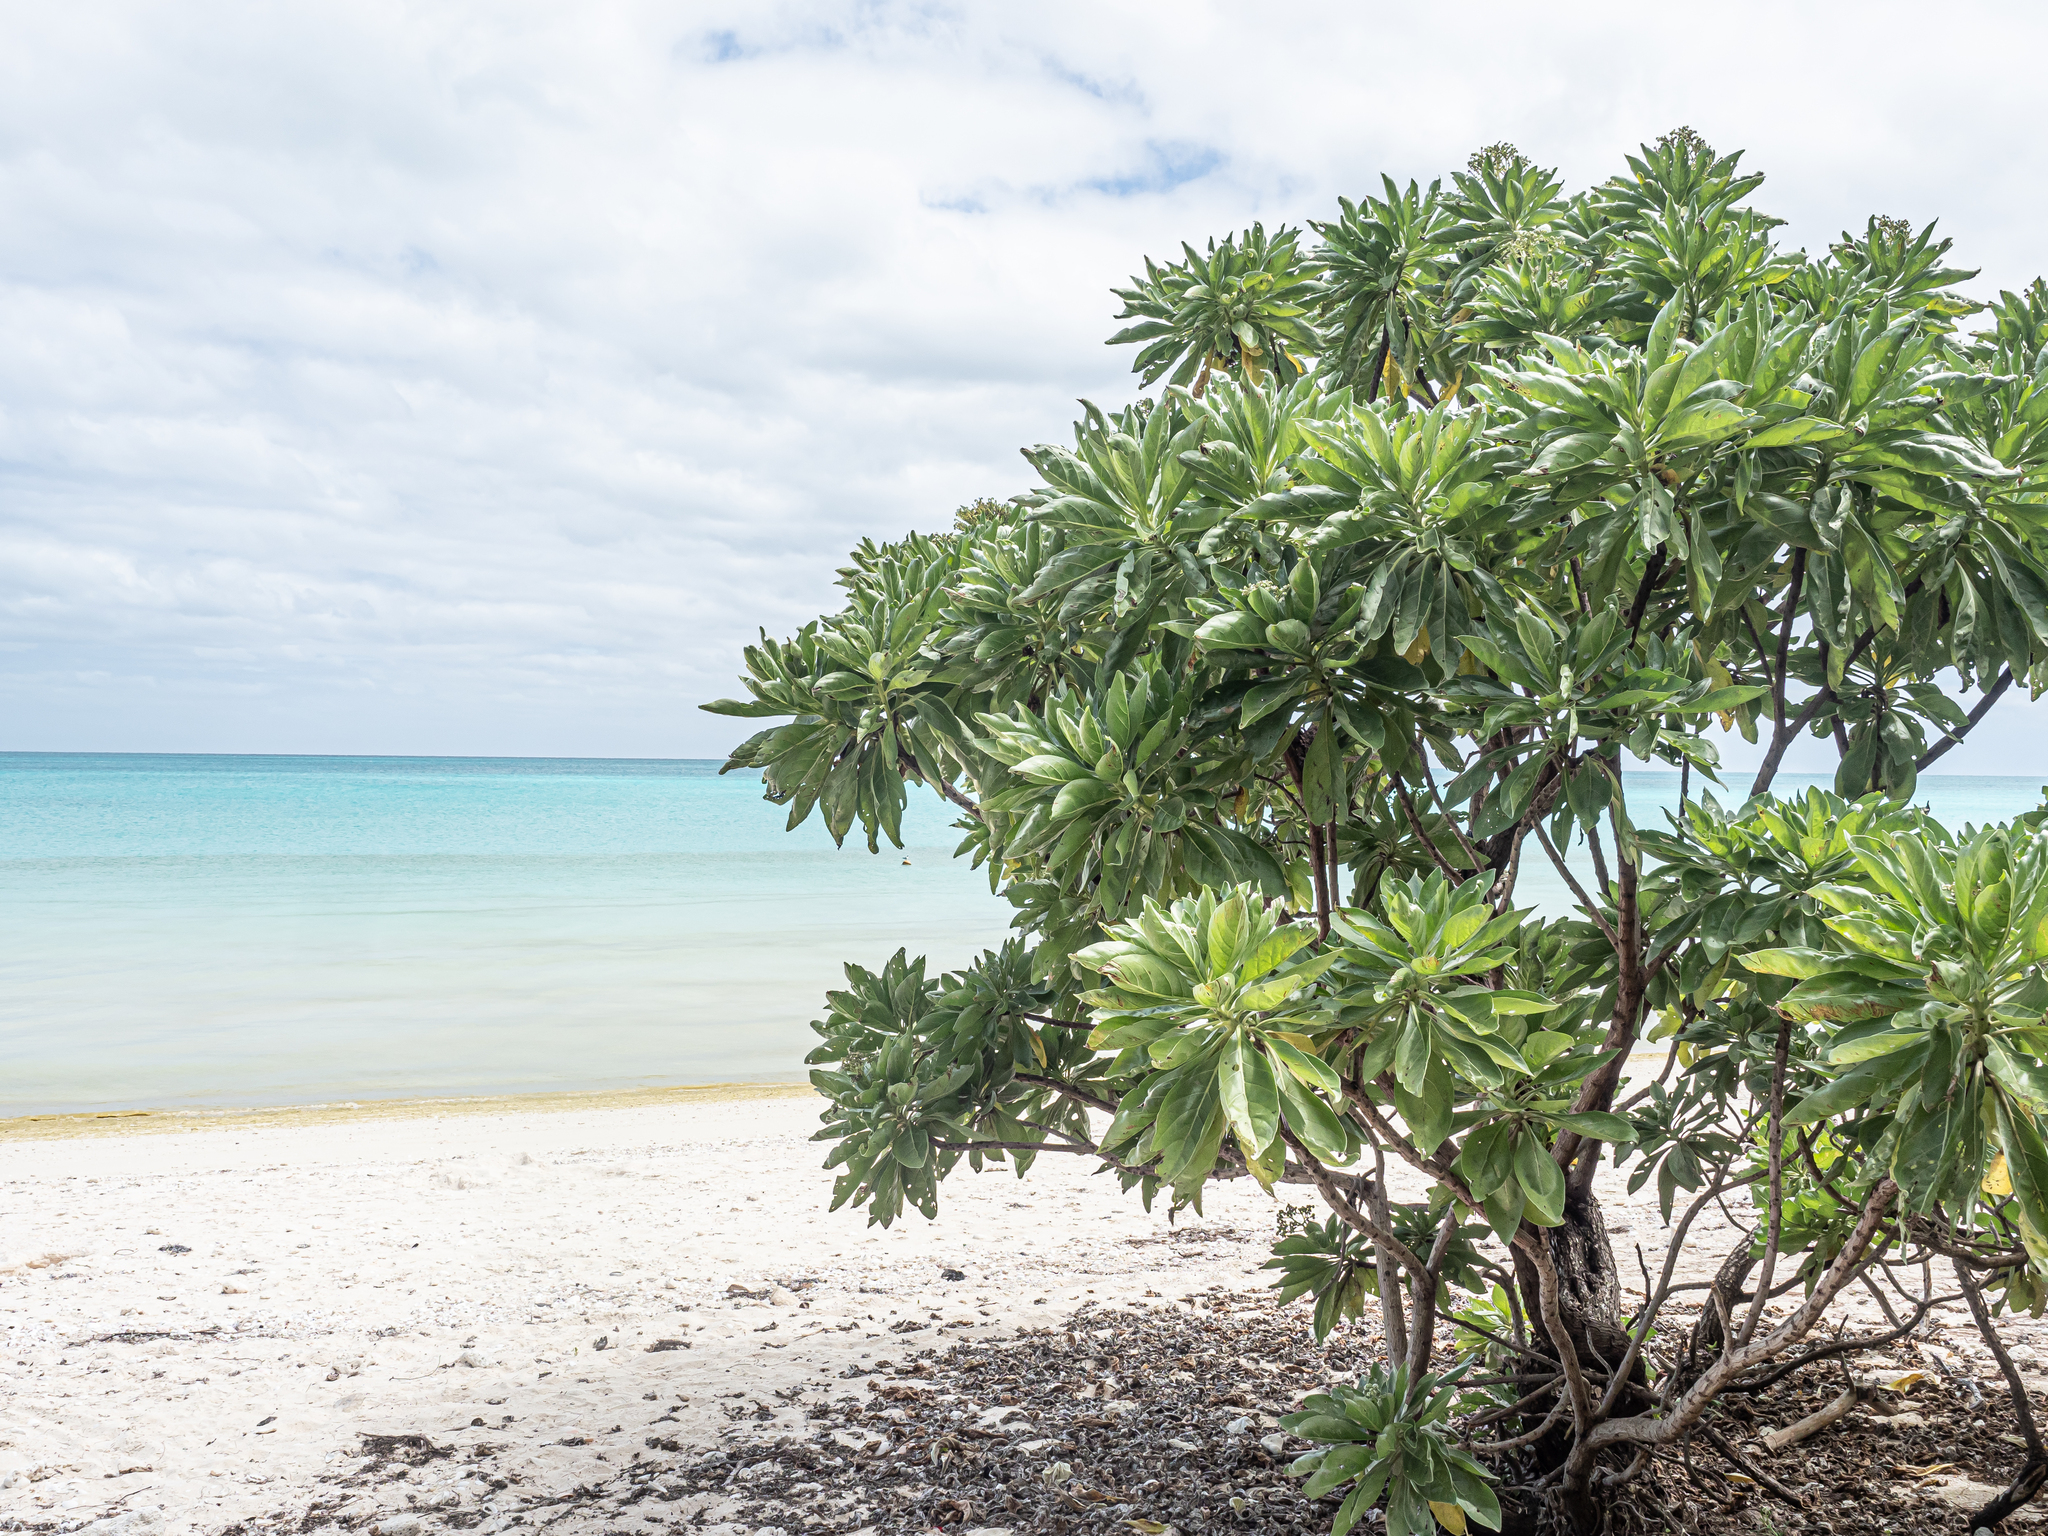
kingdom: Plantae
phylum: Tracheophyta
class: Magnoliopsida
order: Boraginales
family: Heliotropiaceae
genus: Heliotropium
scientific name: Heliotropium velutinum
